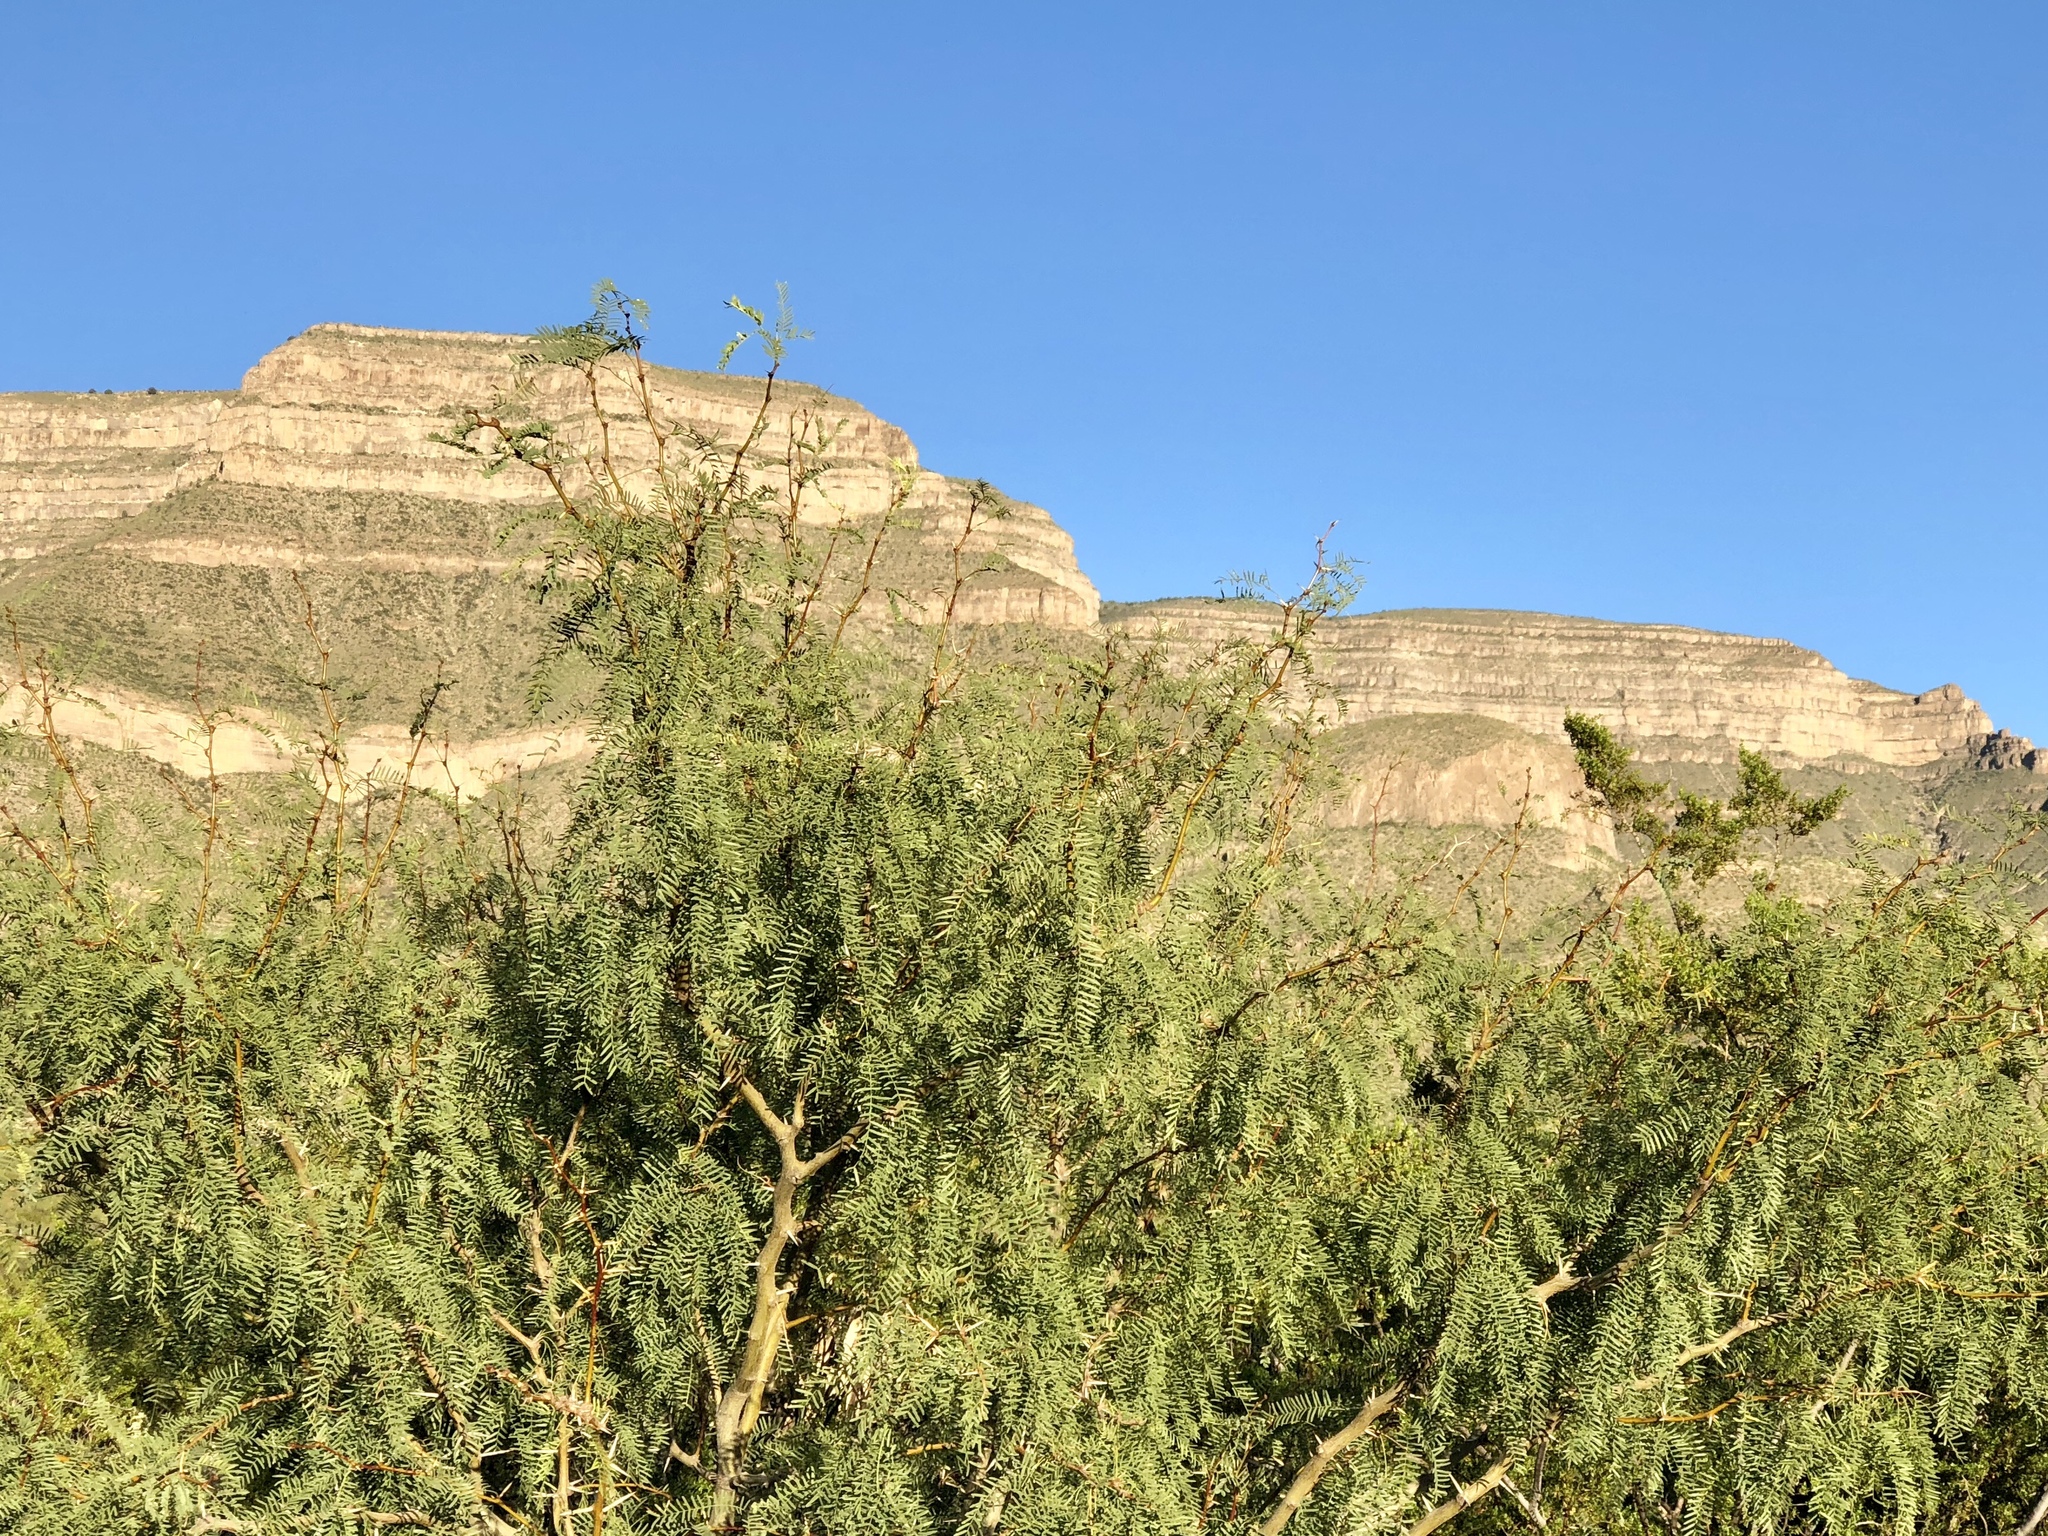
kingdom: Plantae
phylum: Tracheophyta
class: Magnoliopsida
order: Fabales
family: Fabaceae
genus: Prosopis
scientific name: Prosopis glandulosa
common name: Honey mesquite
